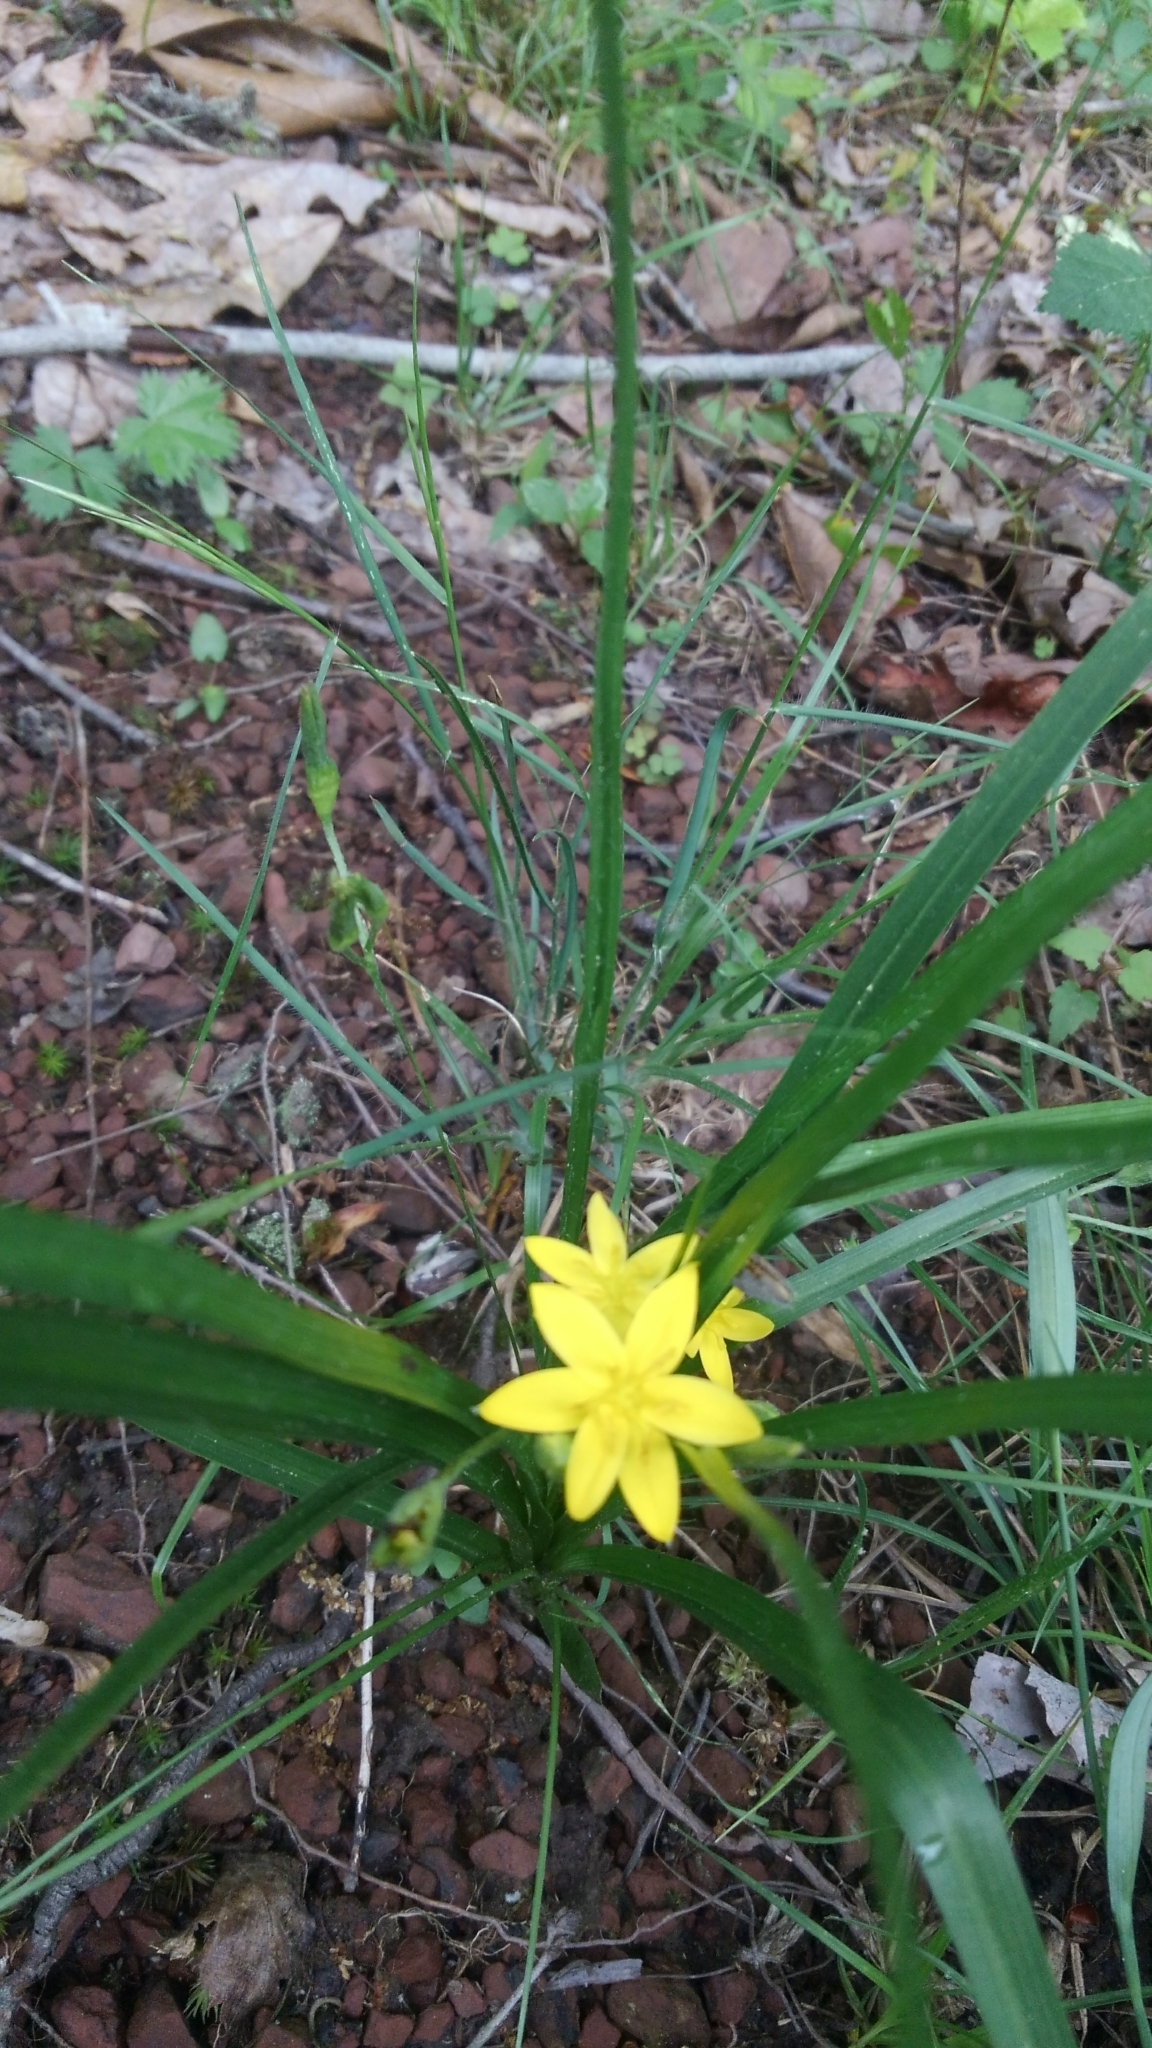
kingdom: Plantae
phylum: Tracheophyta
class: Liliopsida
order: Asparagales
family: Hypoxidaceae
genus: Hypoxis
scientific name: Hypoxis hirsuta
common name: Common goldstar
